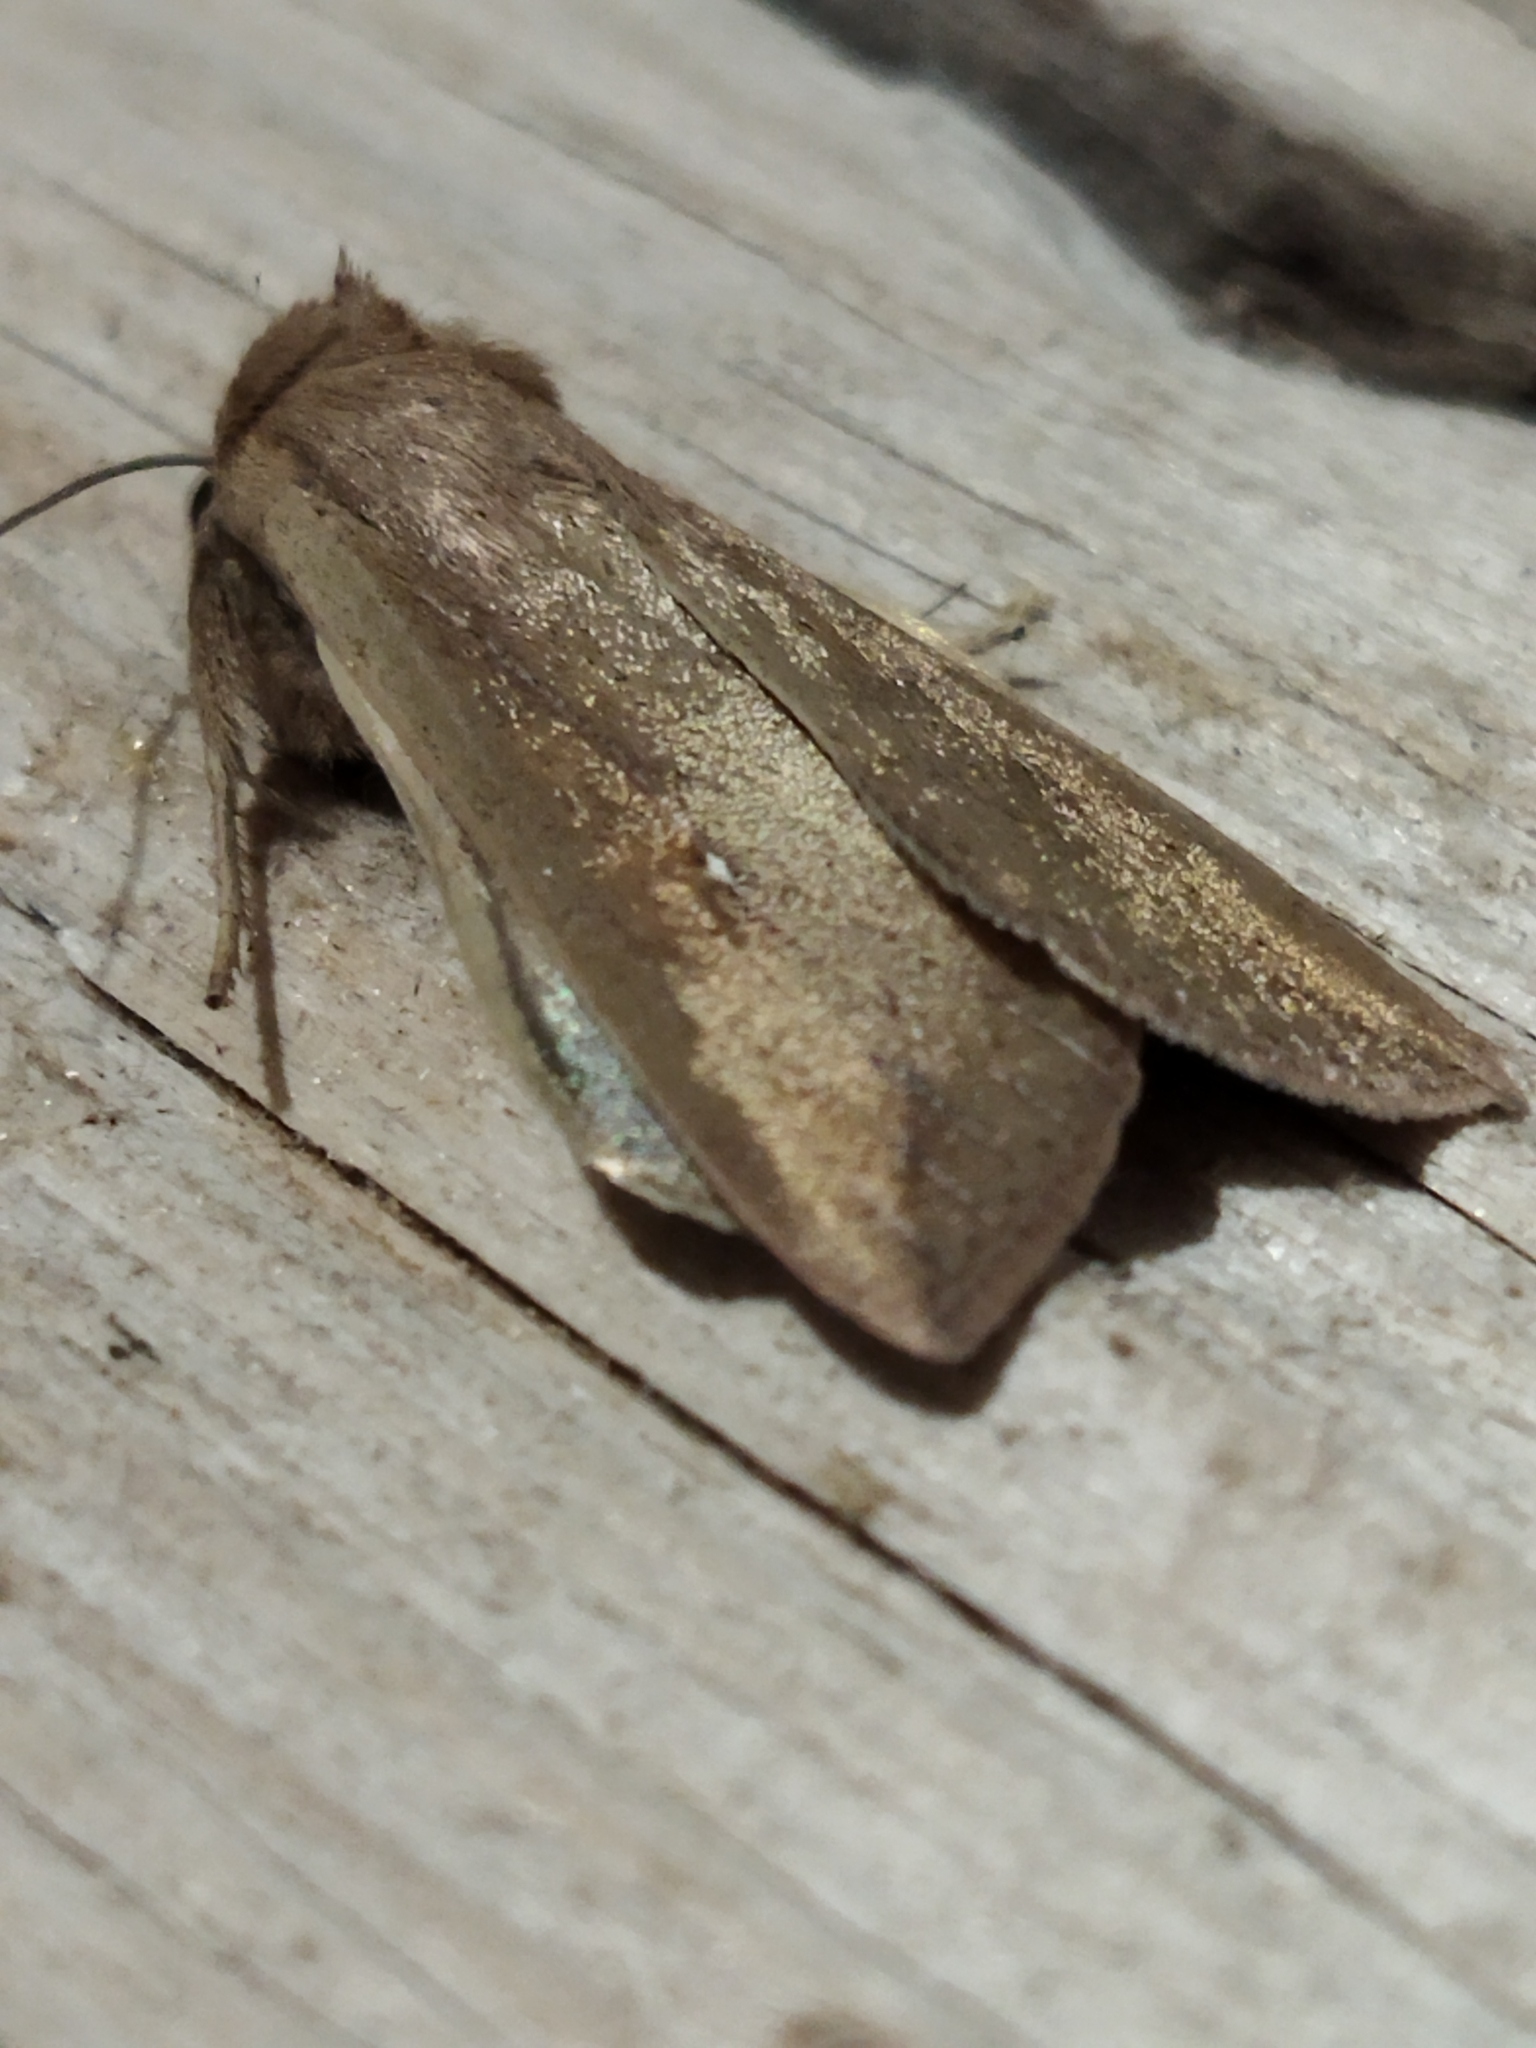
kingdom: Animalia
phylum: Arthropoda
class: Insecta
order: Lepidoptera
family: Noctuidae
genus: Mythimna
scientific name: Mythimna unipuncta
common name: White-speck
